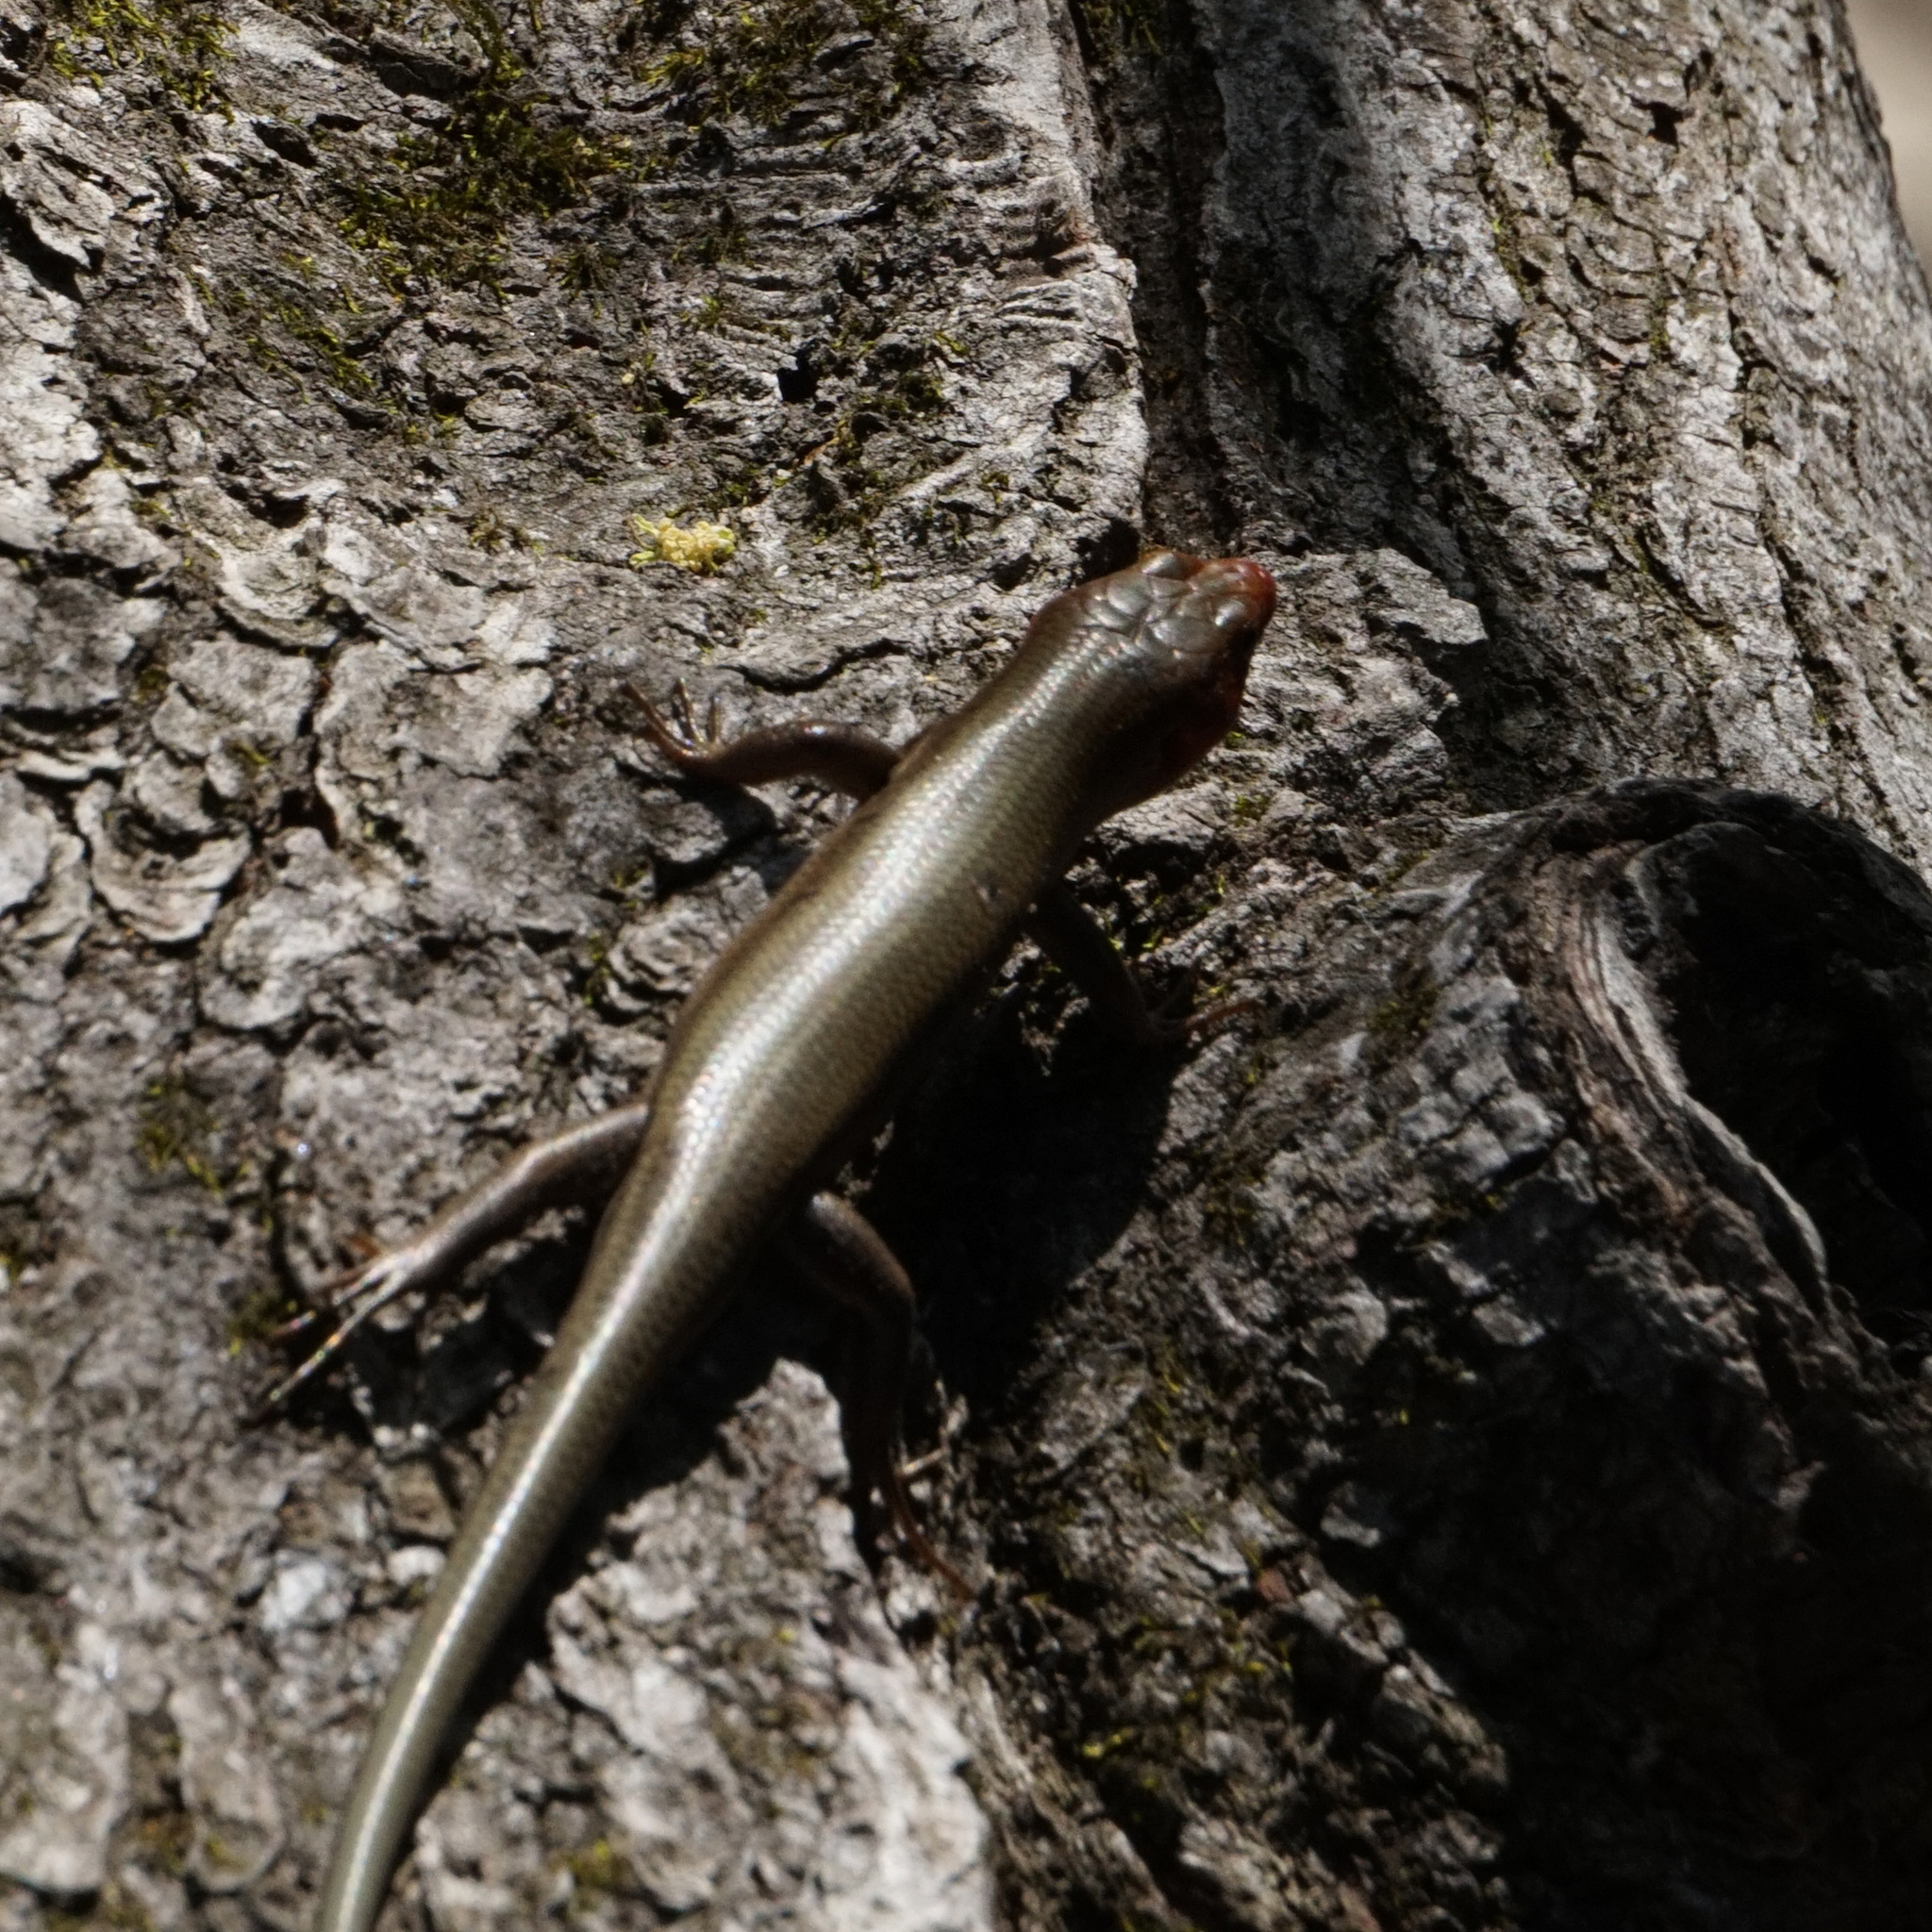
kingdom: Animalia
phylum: Chordata
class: Squamata
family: Scincidae
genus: Plestiodon
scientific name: Plestiodon fasciatus
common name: Five-lined skink
